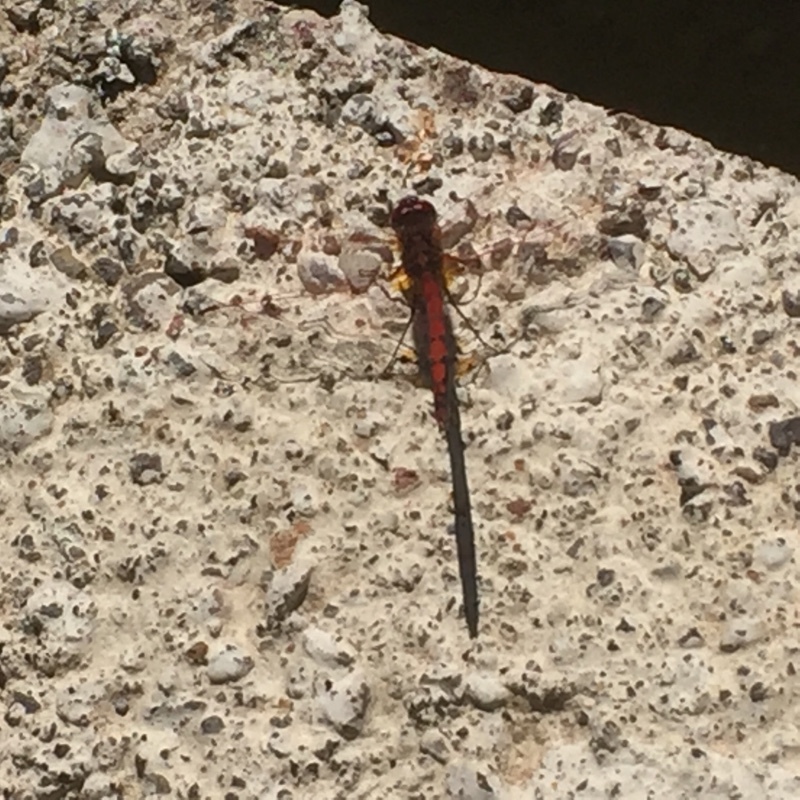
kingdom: Animalia
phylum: Arthropoda
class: Insecta
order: Odonata
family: Libellulidae
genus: Trithemis
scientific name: Trithemis arteriosa
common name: Red-veined dropwing
